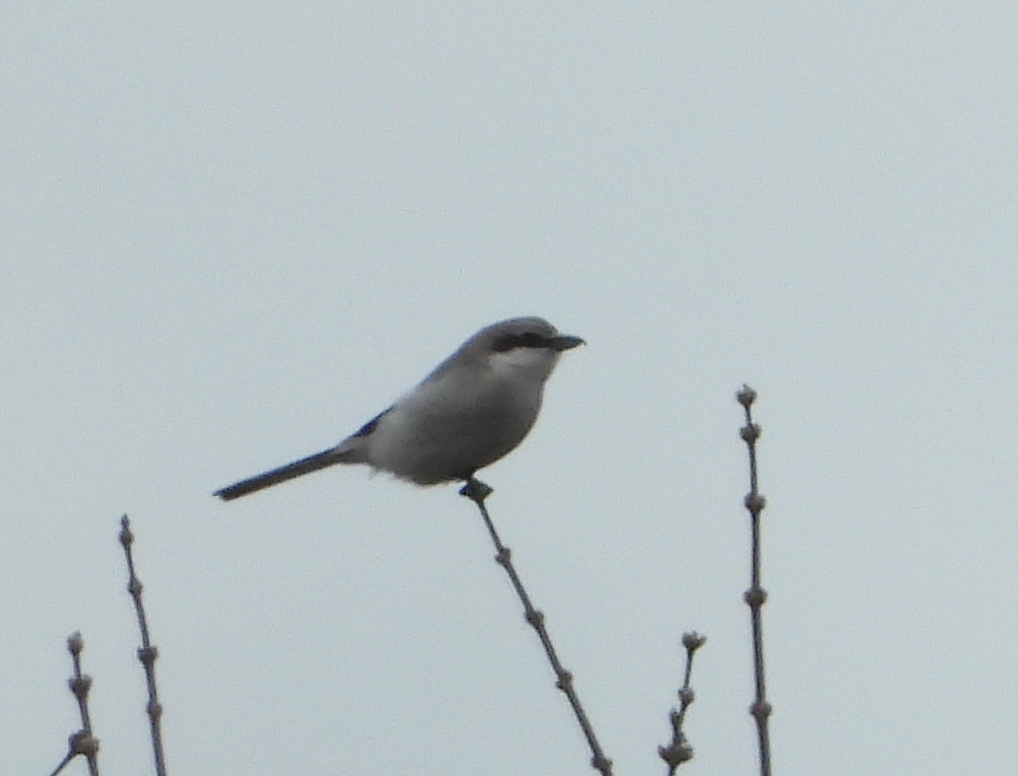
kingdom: Animalia
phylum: Chordata
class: Aves
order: Passeriformes
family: Laniidae
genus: Lanius
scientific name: Lanius excubitor
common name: Great grey shrike
